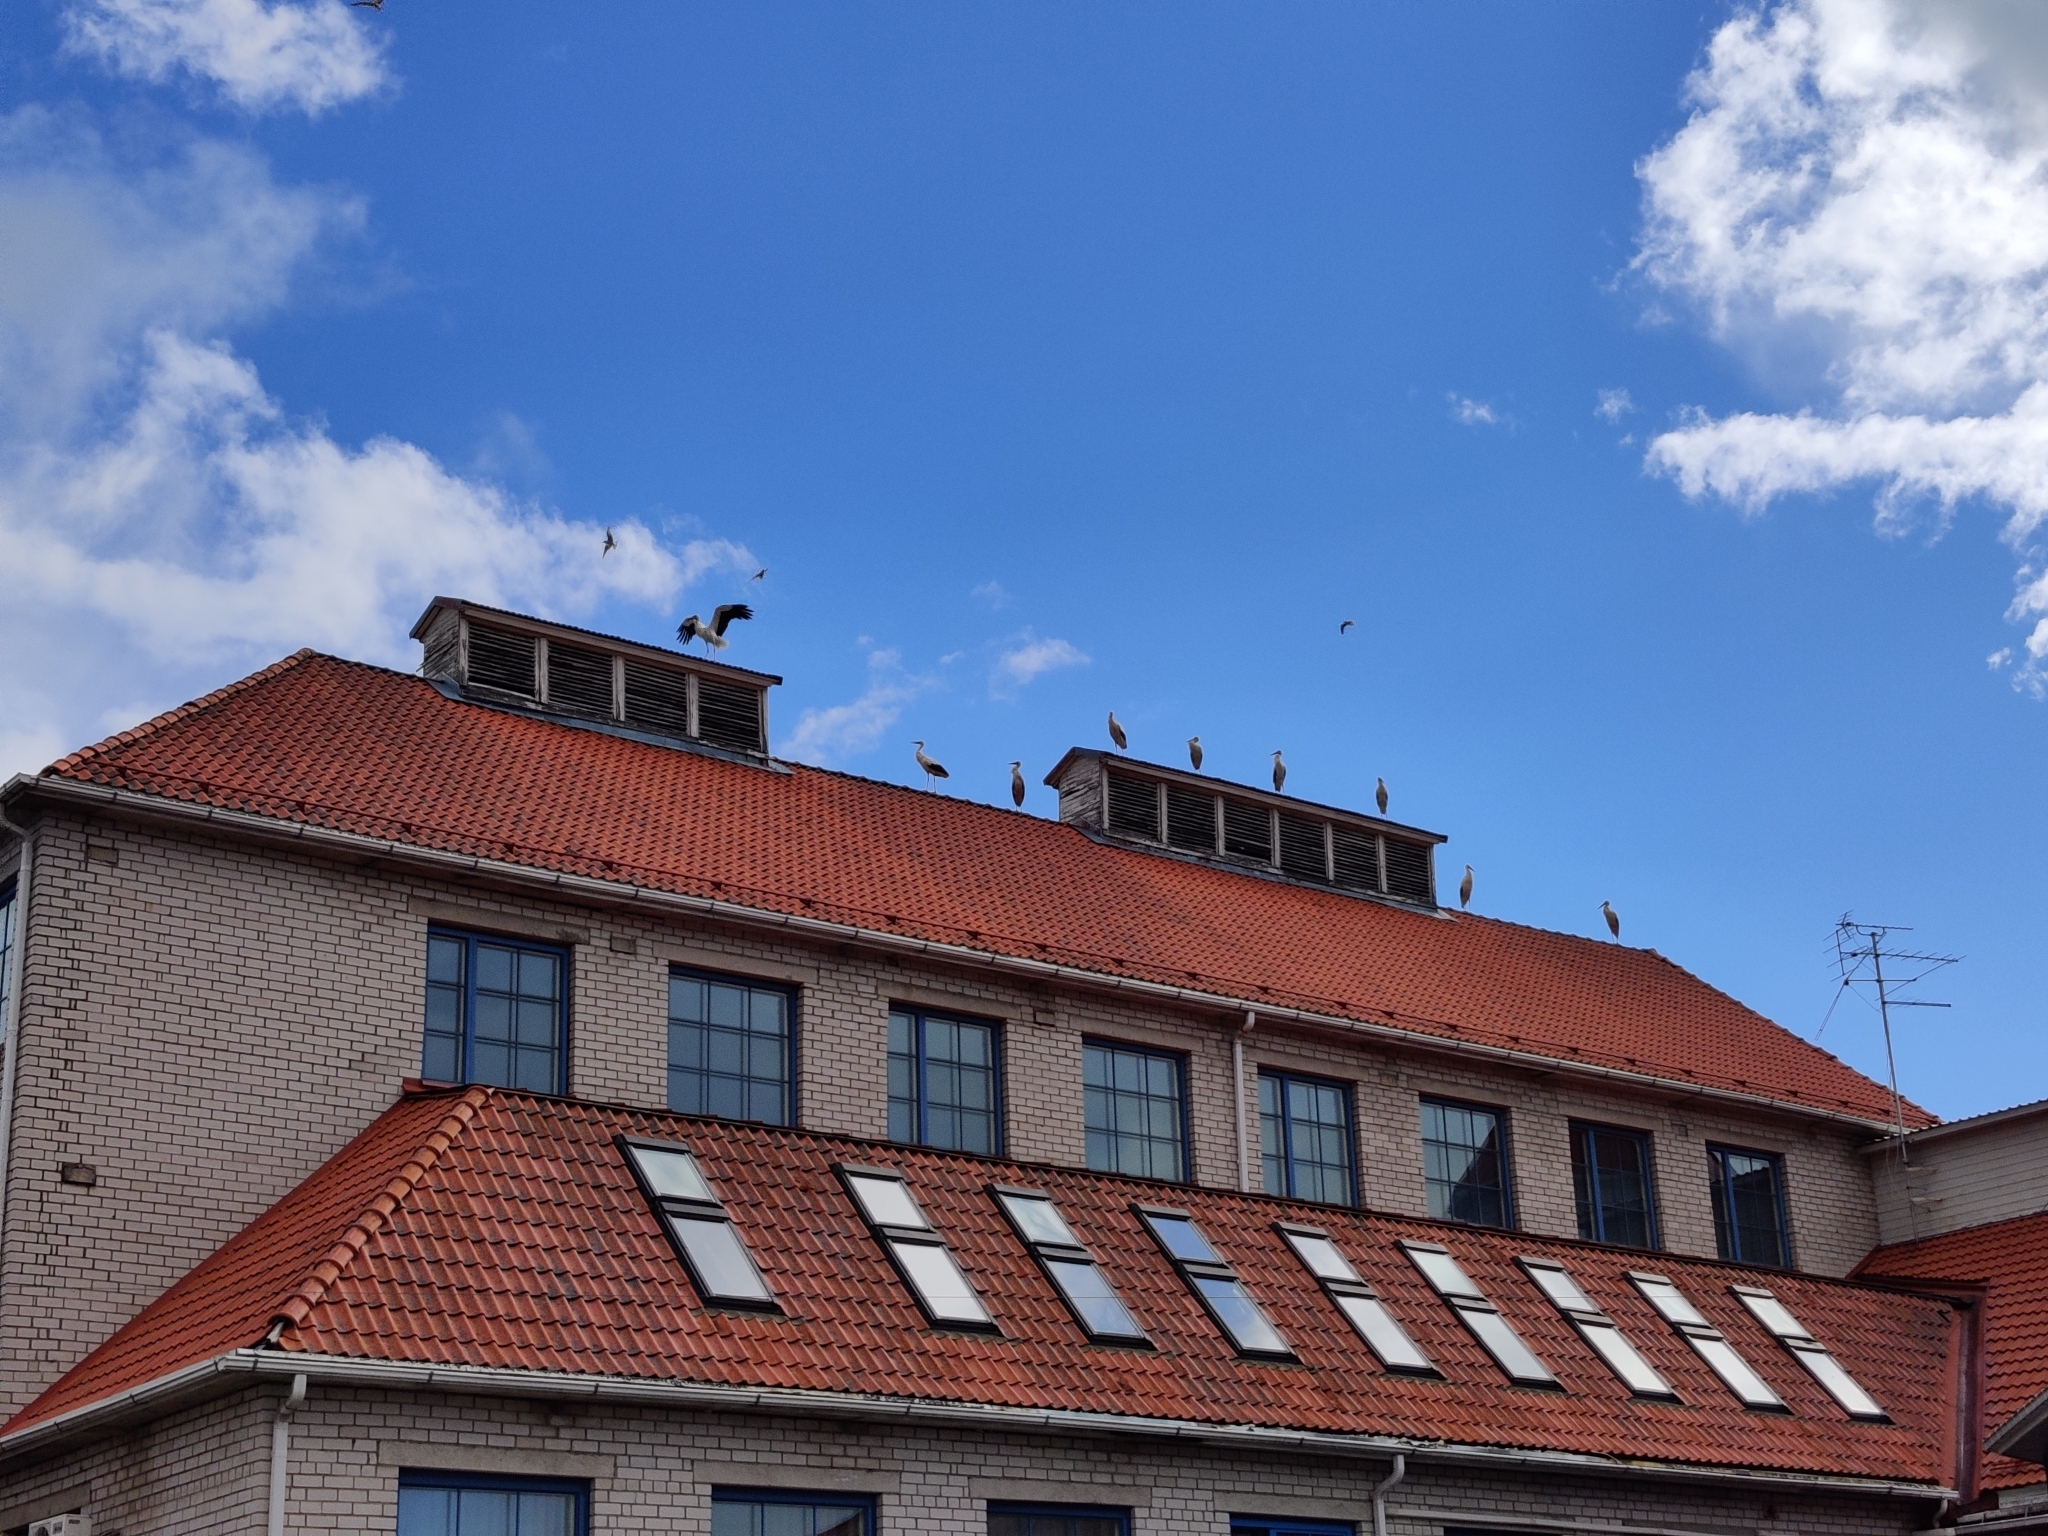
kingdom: Animalia
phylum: Chordata
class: Aves
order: Ciconiiformes
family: Ciconiidae
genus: Ciconia
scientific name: Ciconia ciconia
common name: White stork
